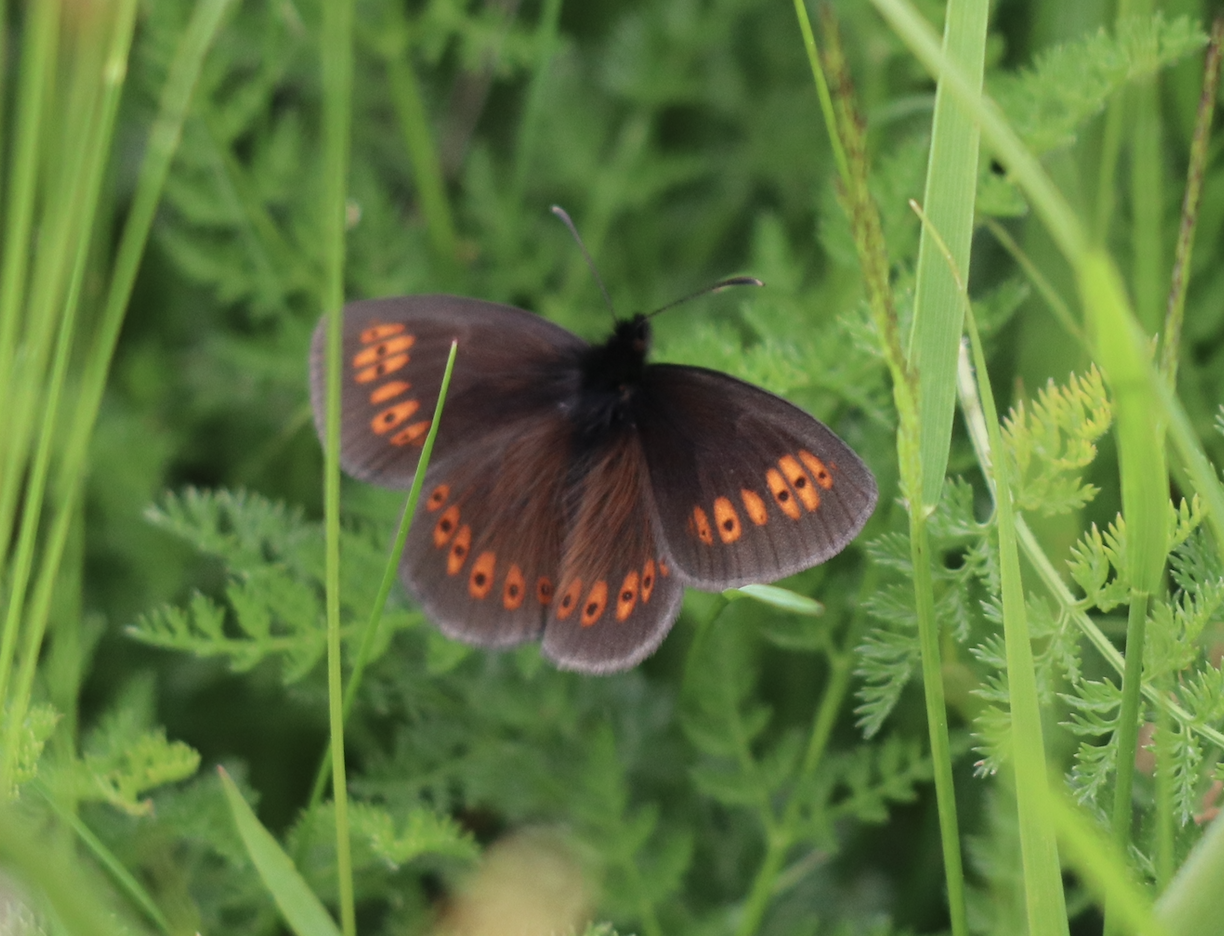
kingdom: Animalia
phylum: Arthropoda
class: Insecta
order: Lepidoptera
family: Nymphalidae
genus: Erebia
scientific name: Erebia alberganus
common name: Almond-eyed ringlet
